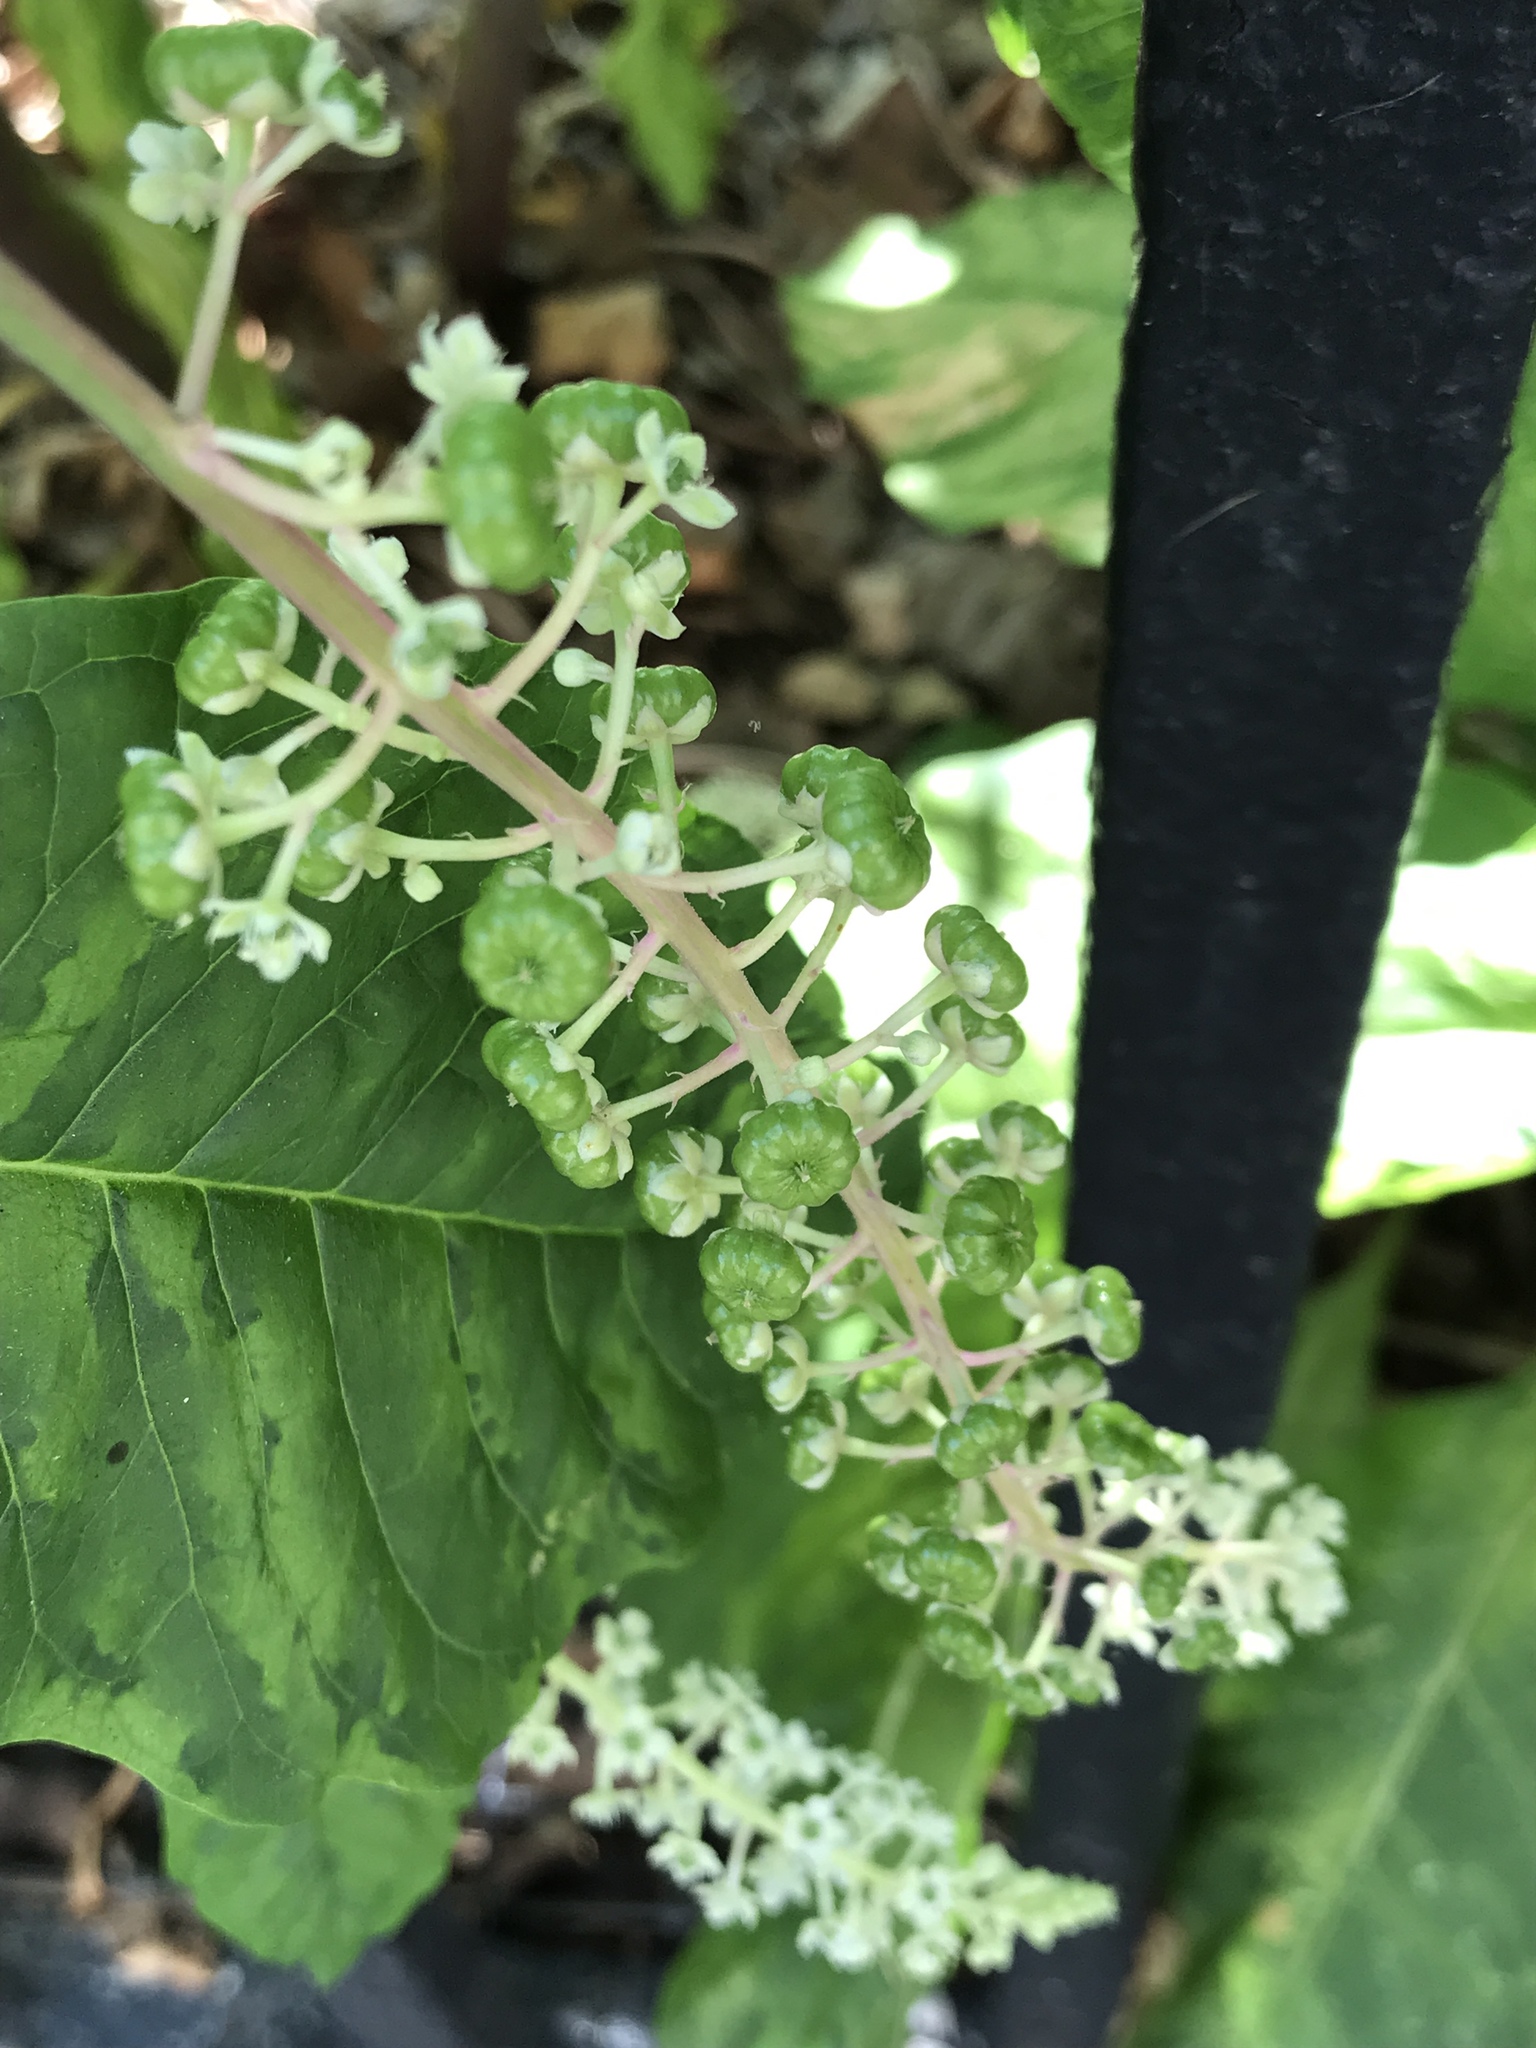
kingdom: Plantae
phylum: Tracheophyta
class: Magnoliopsida
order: Caryophyllales
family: Phytolaccaceae
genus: Phytolacca
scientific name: Phytolacca americana
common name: American pokeweed
